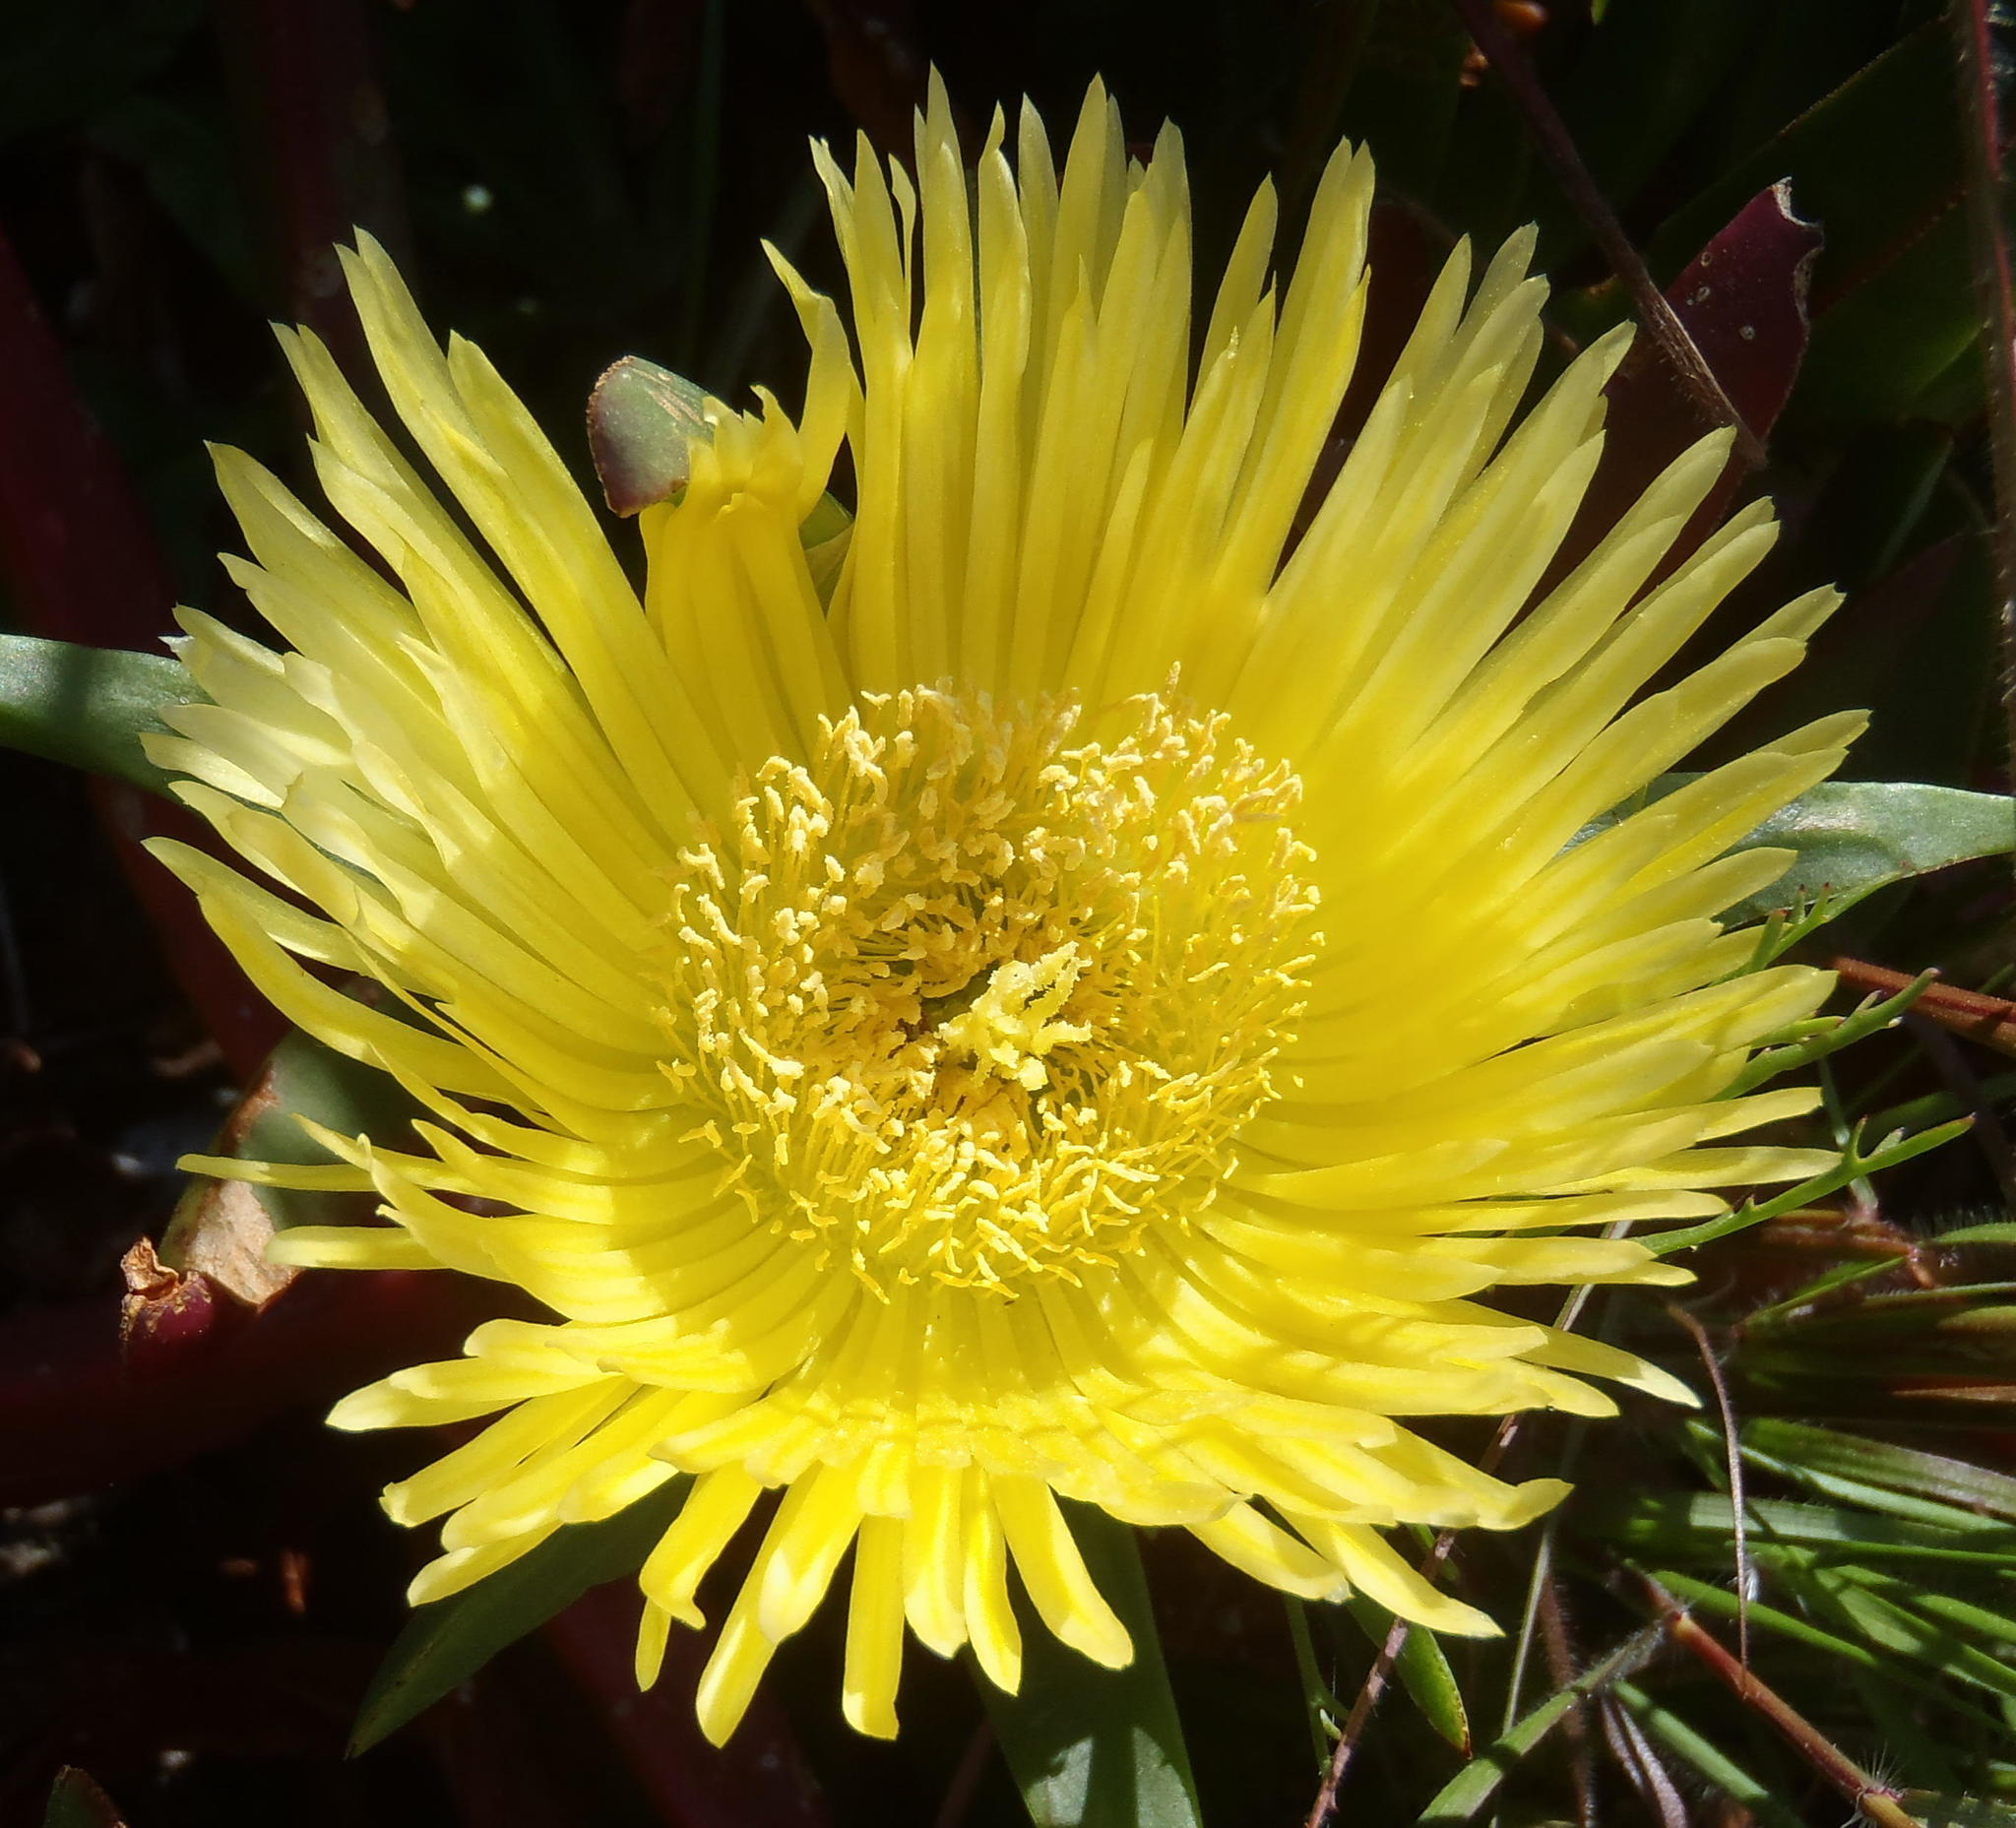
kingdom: Plantae
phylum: Tracheophyta
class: Magnoliopsida
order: Caryophyllales
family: Aizoaceae
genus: Carpobrotus
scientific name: Carpobrotus edulis
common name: Hottentot-fig
